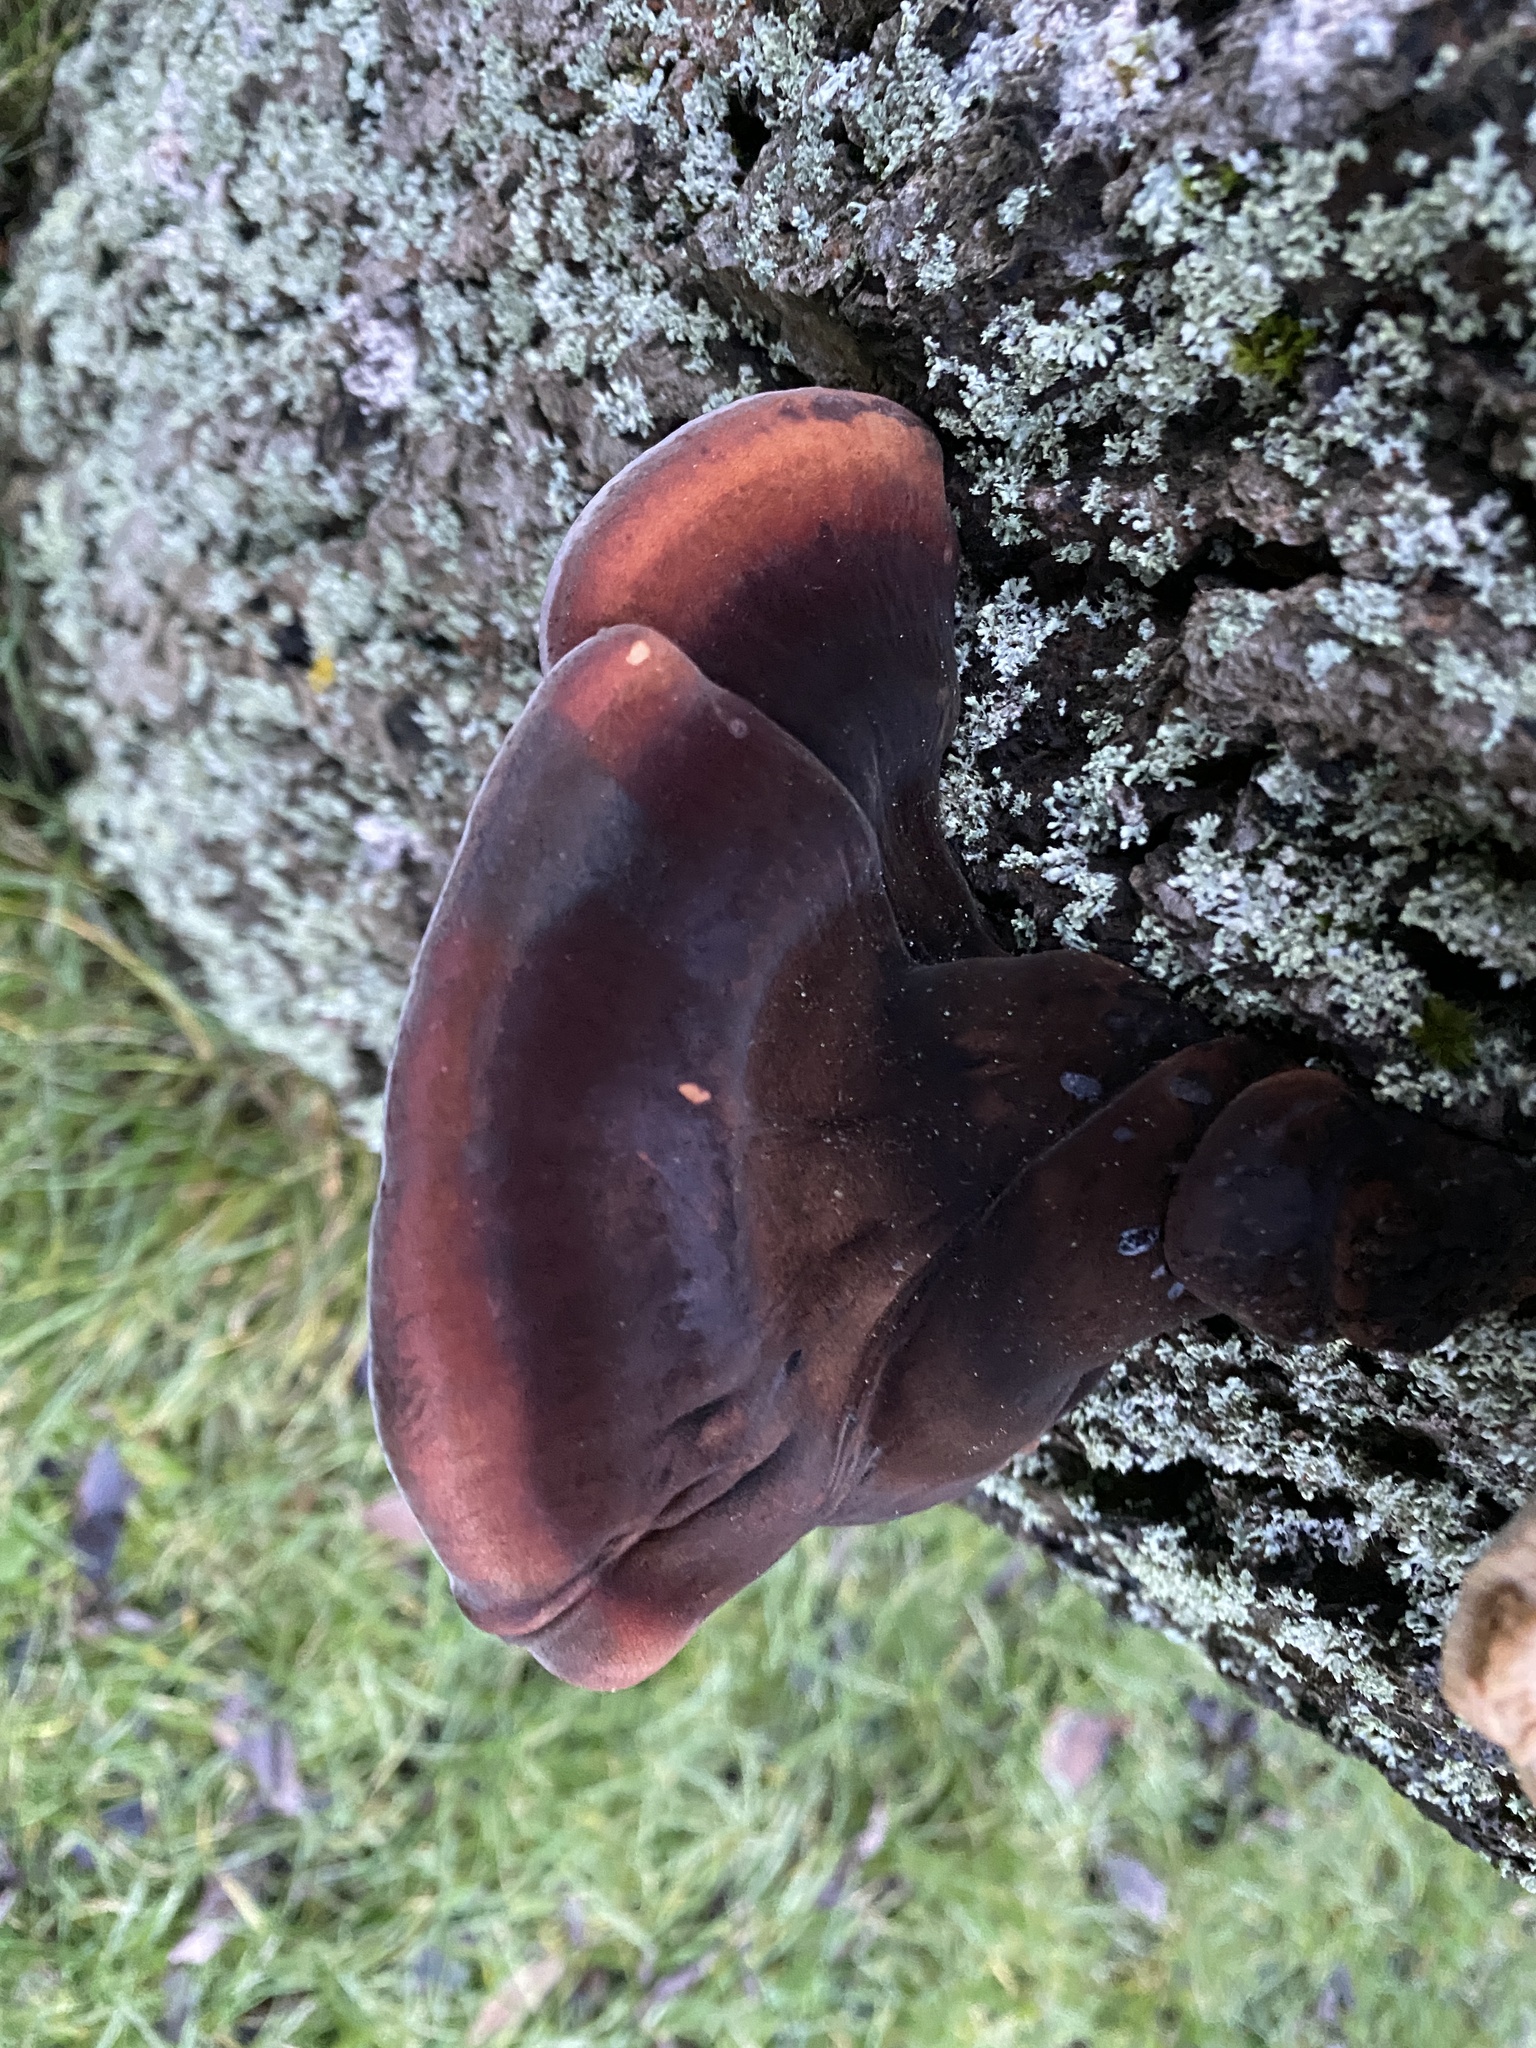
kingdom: Fungi
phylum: Basidiomycota
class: Agaricomycetes
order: Polyporales
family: Ischnodermataceae
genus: Ischnoderma
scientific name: Ischnoderma resinosum
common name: Resinous polypore
